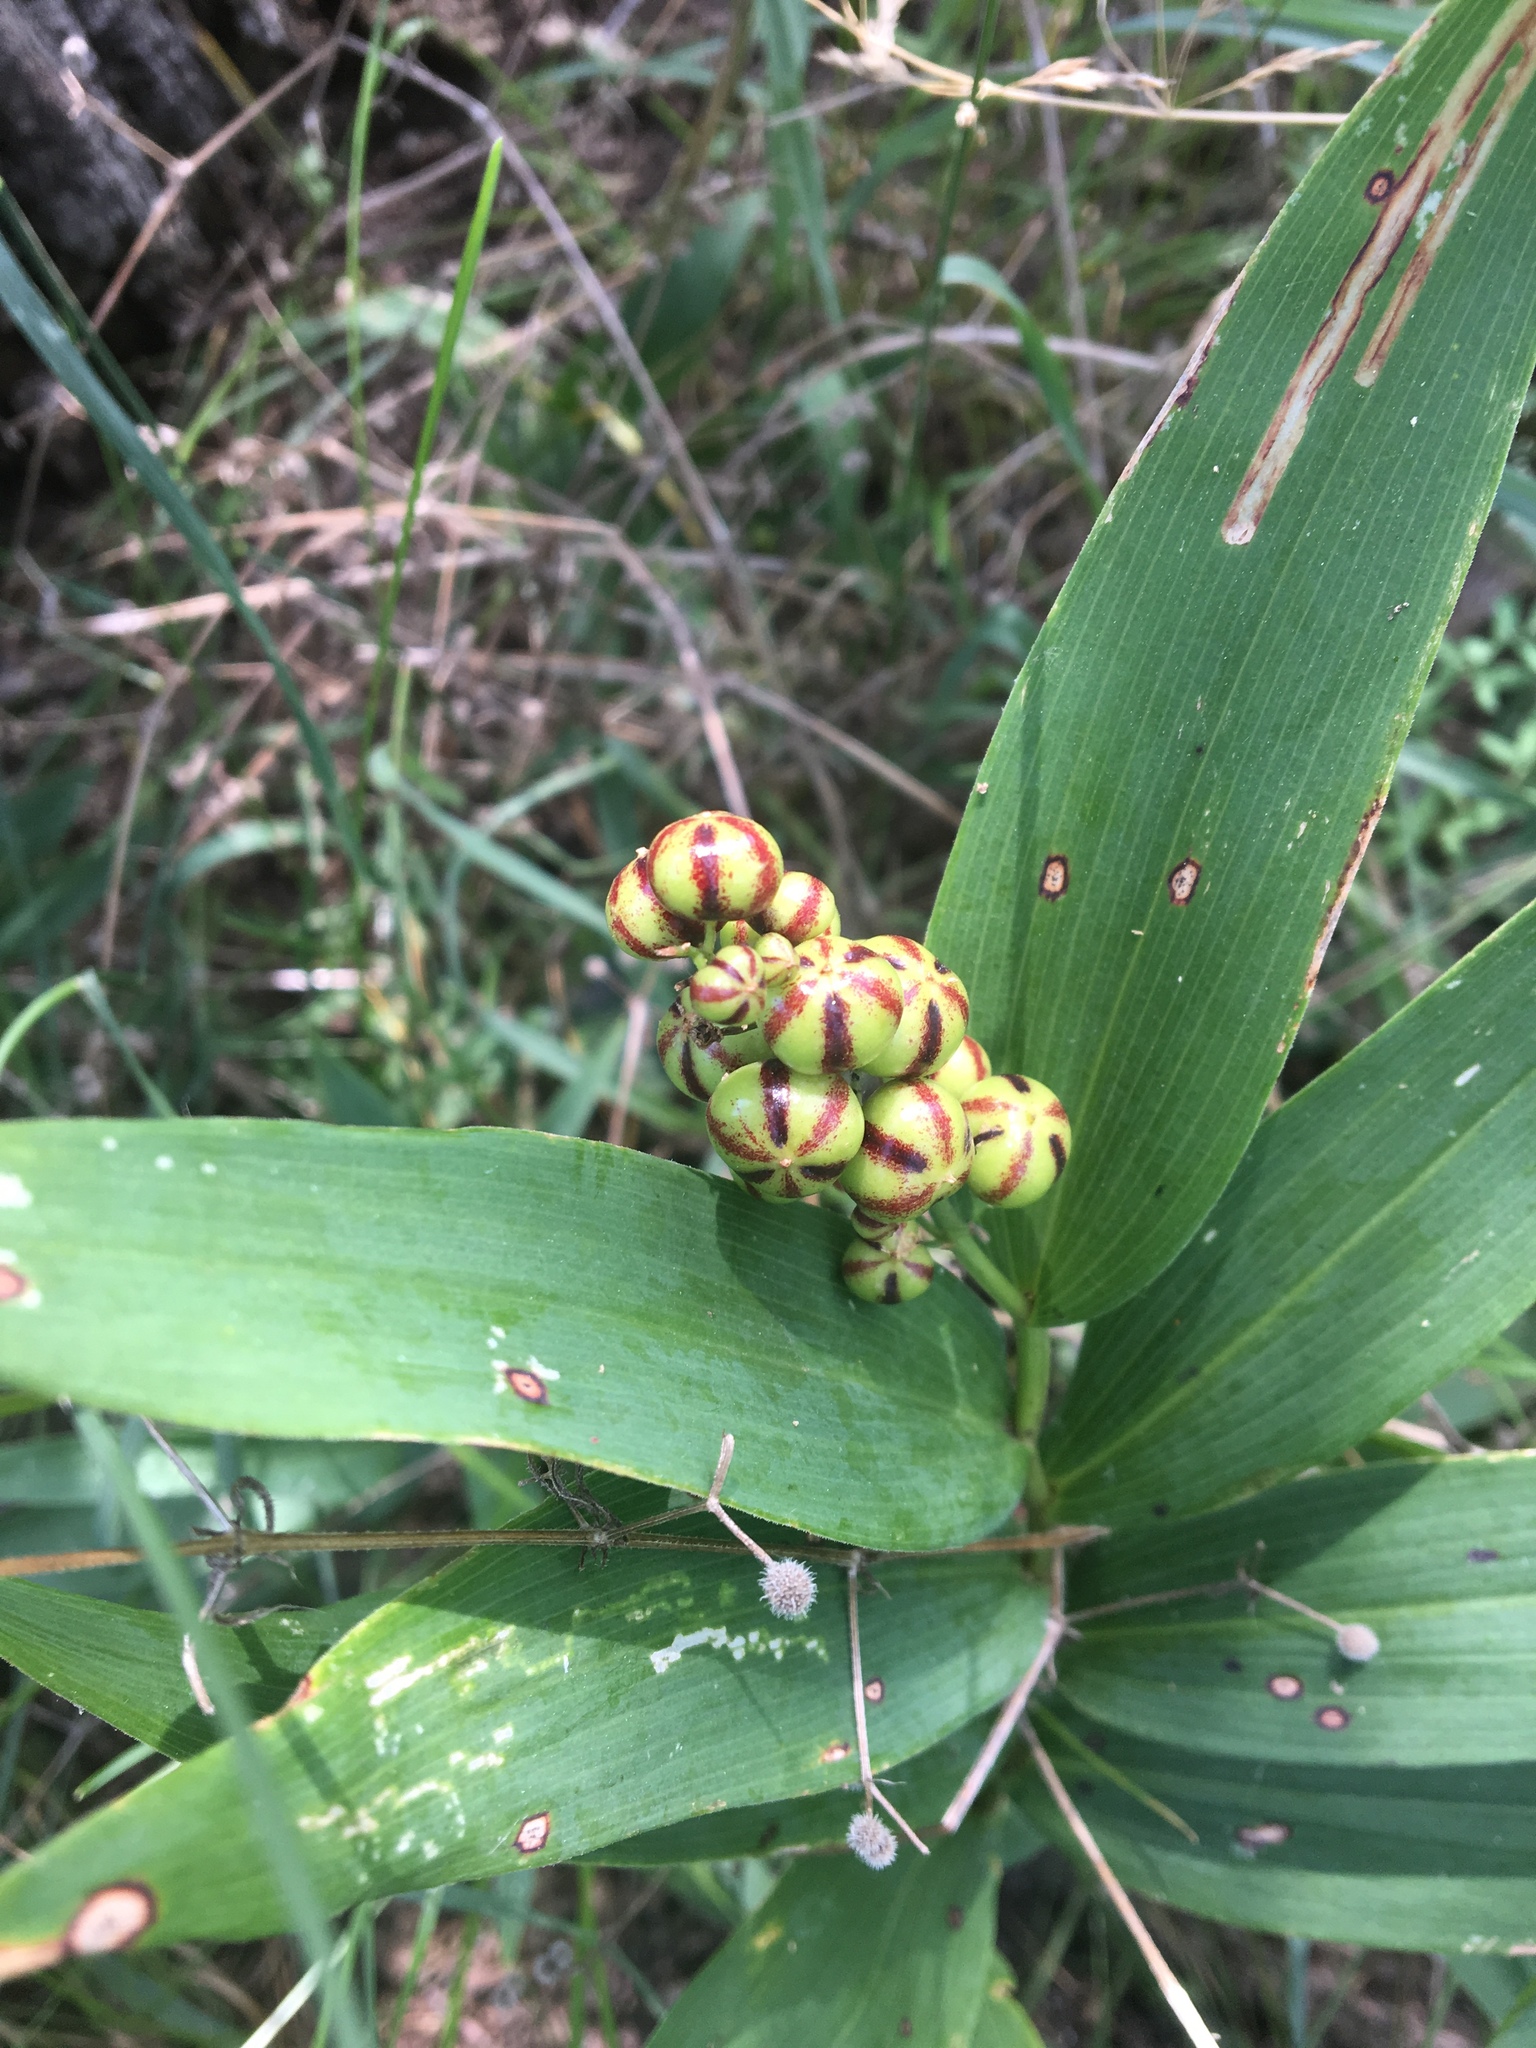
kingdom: Plantae
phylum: Tracheophyta
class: Liliopsida
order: Asparagales
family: Asparagaceae
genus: Maianthemum
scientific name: Maianthemum stellatum
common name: Little false solomon's seal
